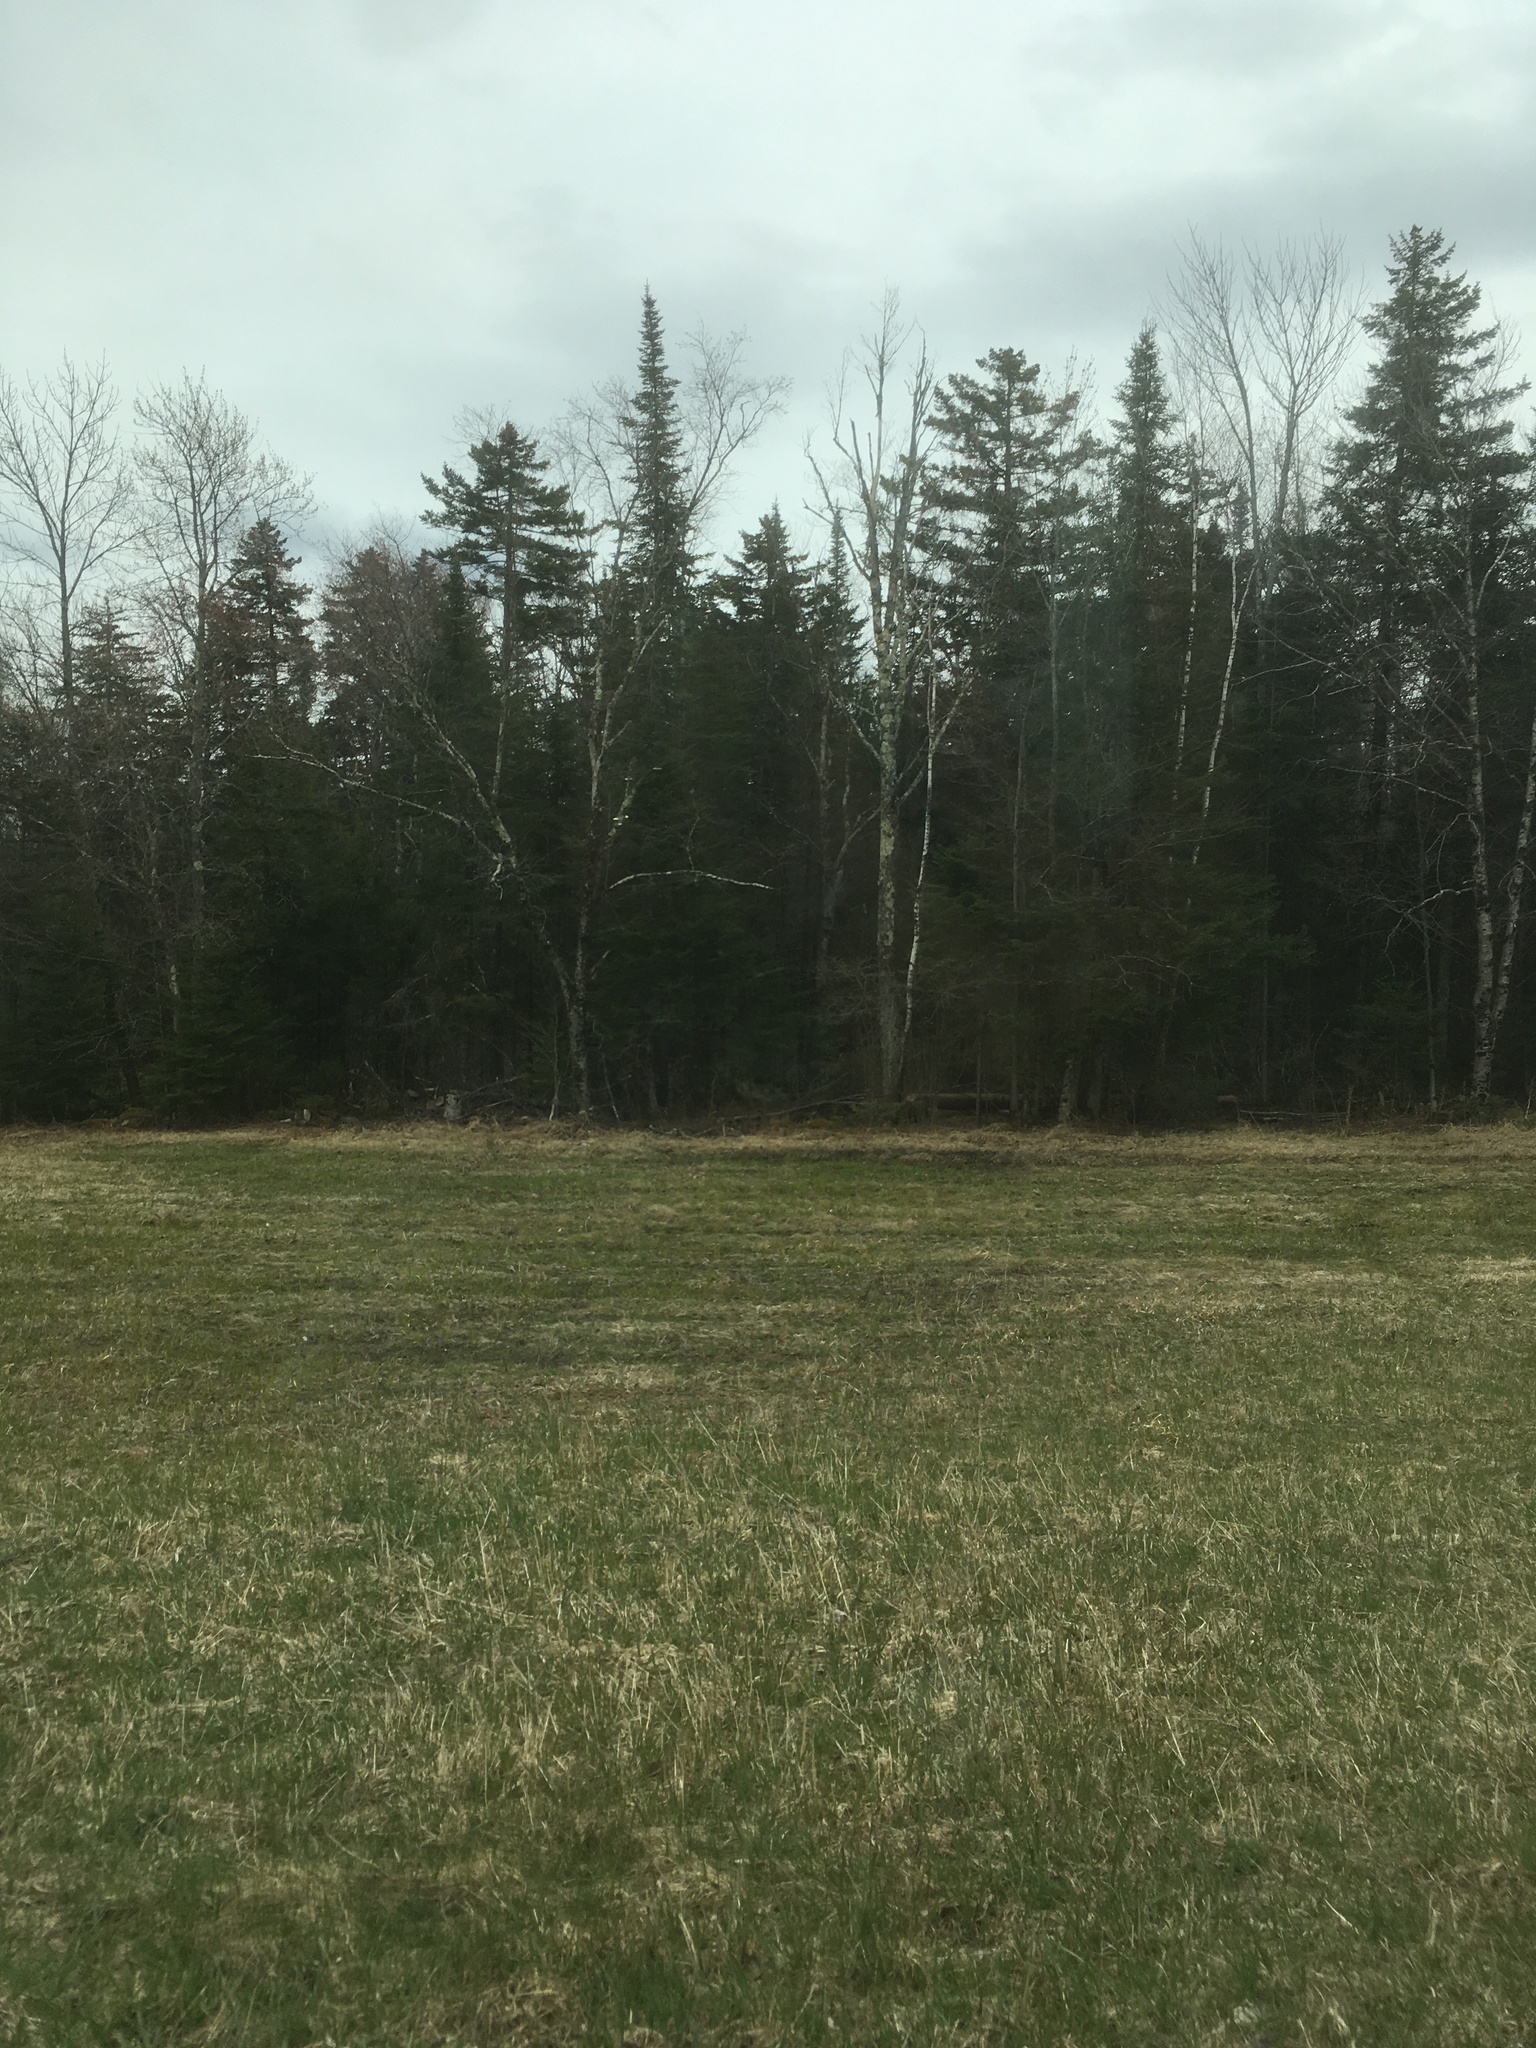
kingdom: Plantae
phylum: Tracheophyta
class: Pinopsida
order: Pinales
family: Pinaceae
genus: Abies
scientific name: Abies balsamea
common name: Balsam fir
